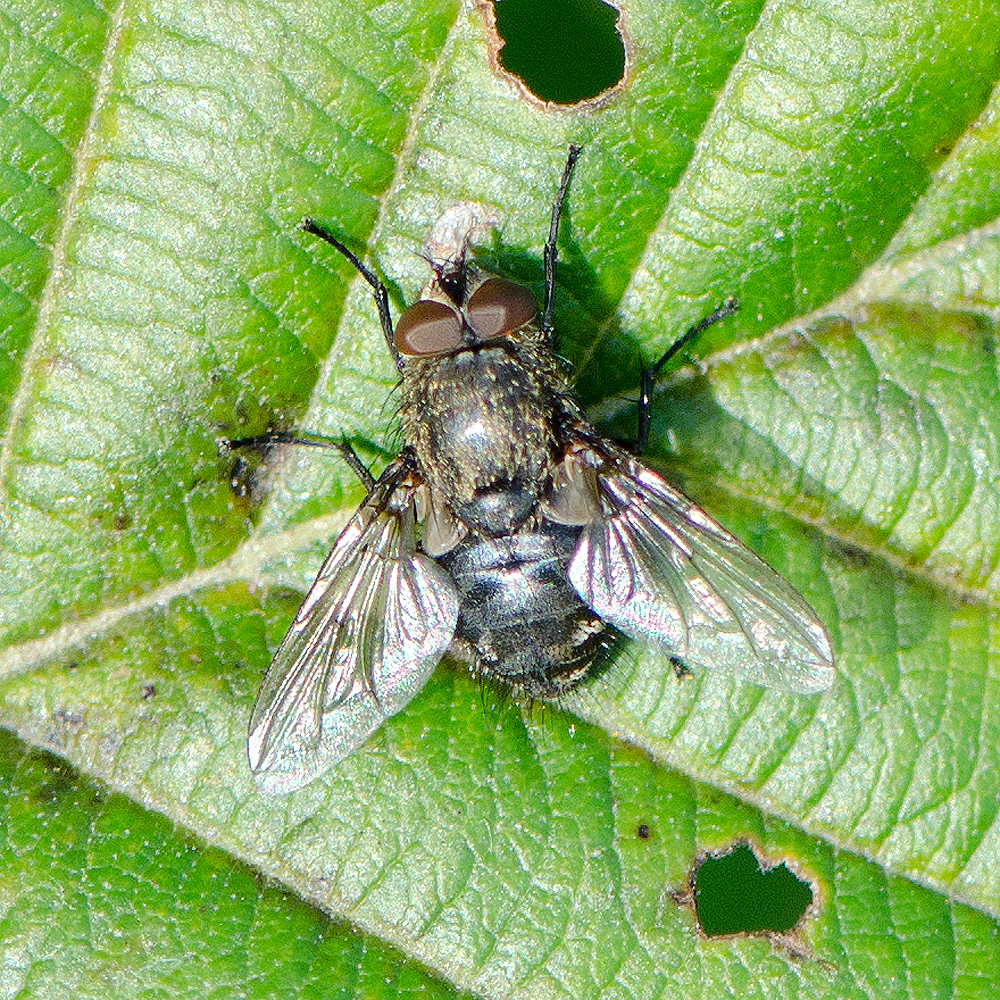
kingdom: Animalia
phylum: Arthropoda
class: Insecta
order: Diptera
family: Polleniidae
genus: Pollenia
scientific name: Pollenia
